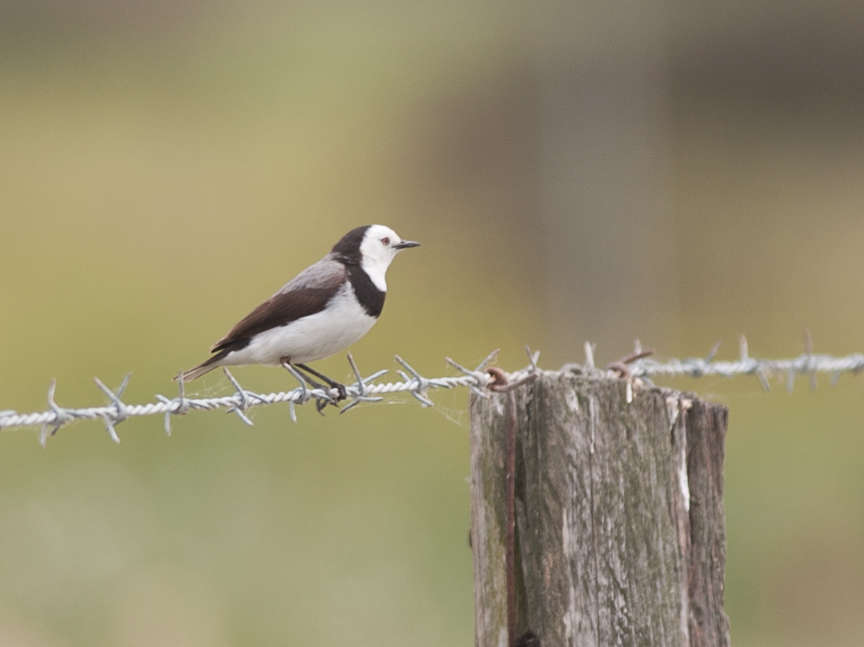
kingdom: Animalia
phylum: Chordata
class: Aves
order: Passeriformes
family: Meliphagidae
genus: Epthianura
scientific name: Epthianura albifrons
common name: White-fronted chat
